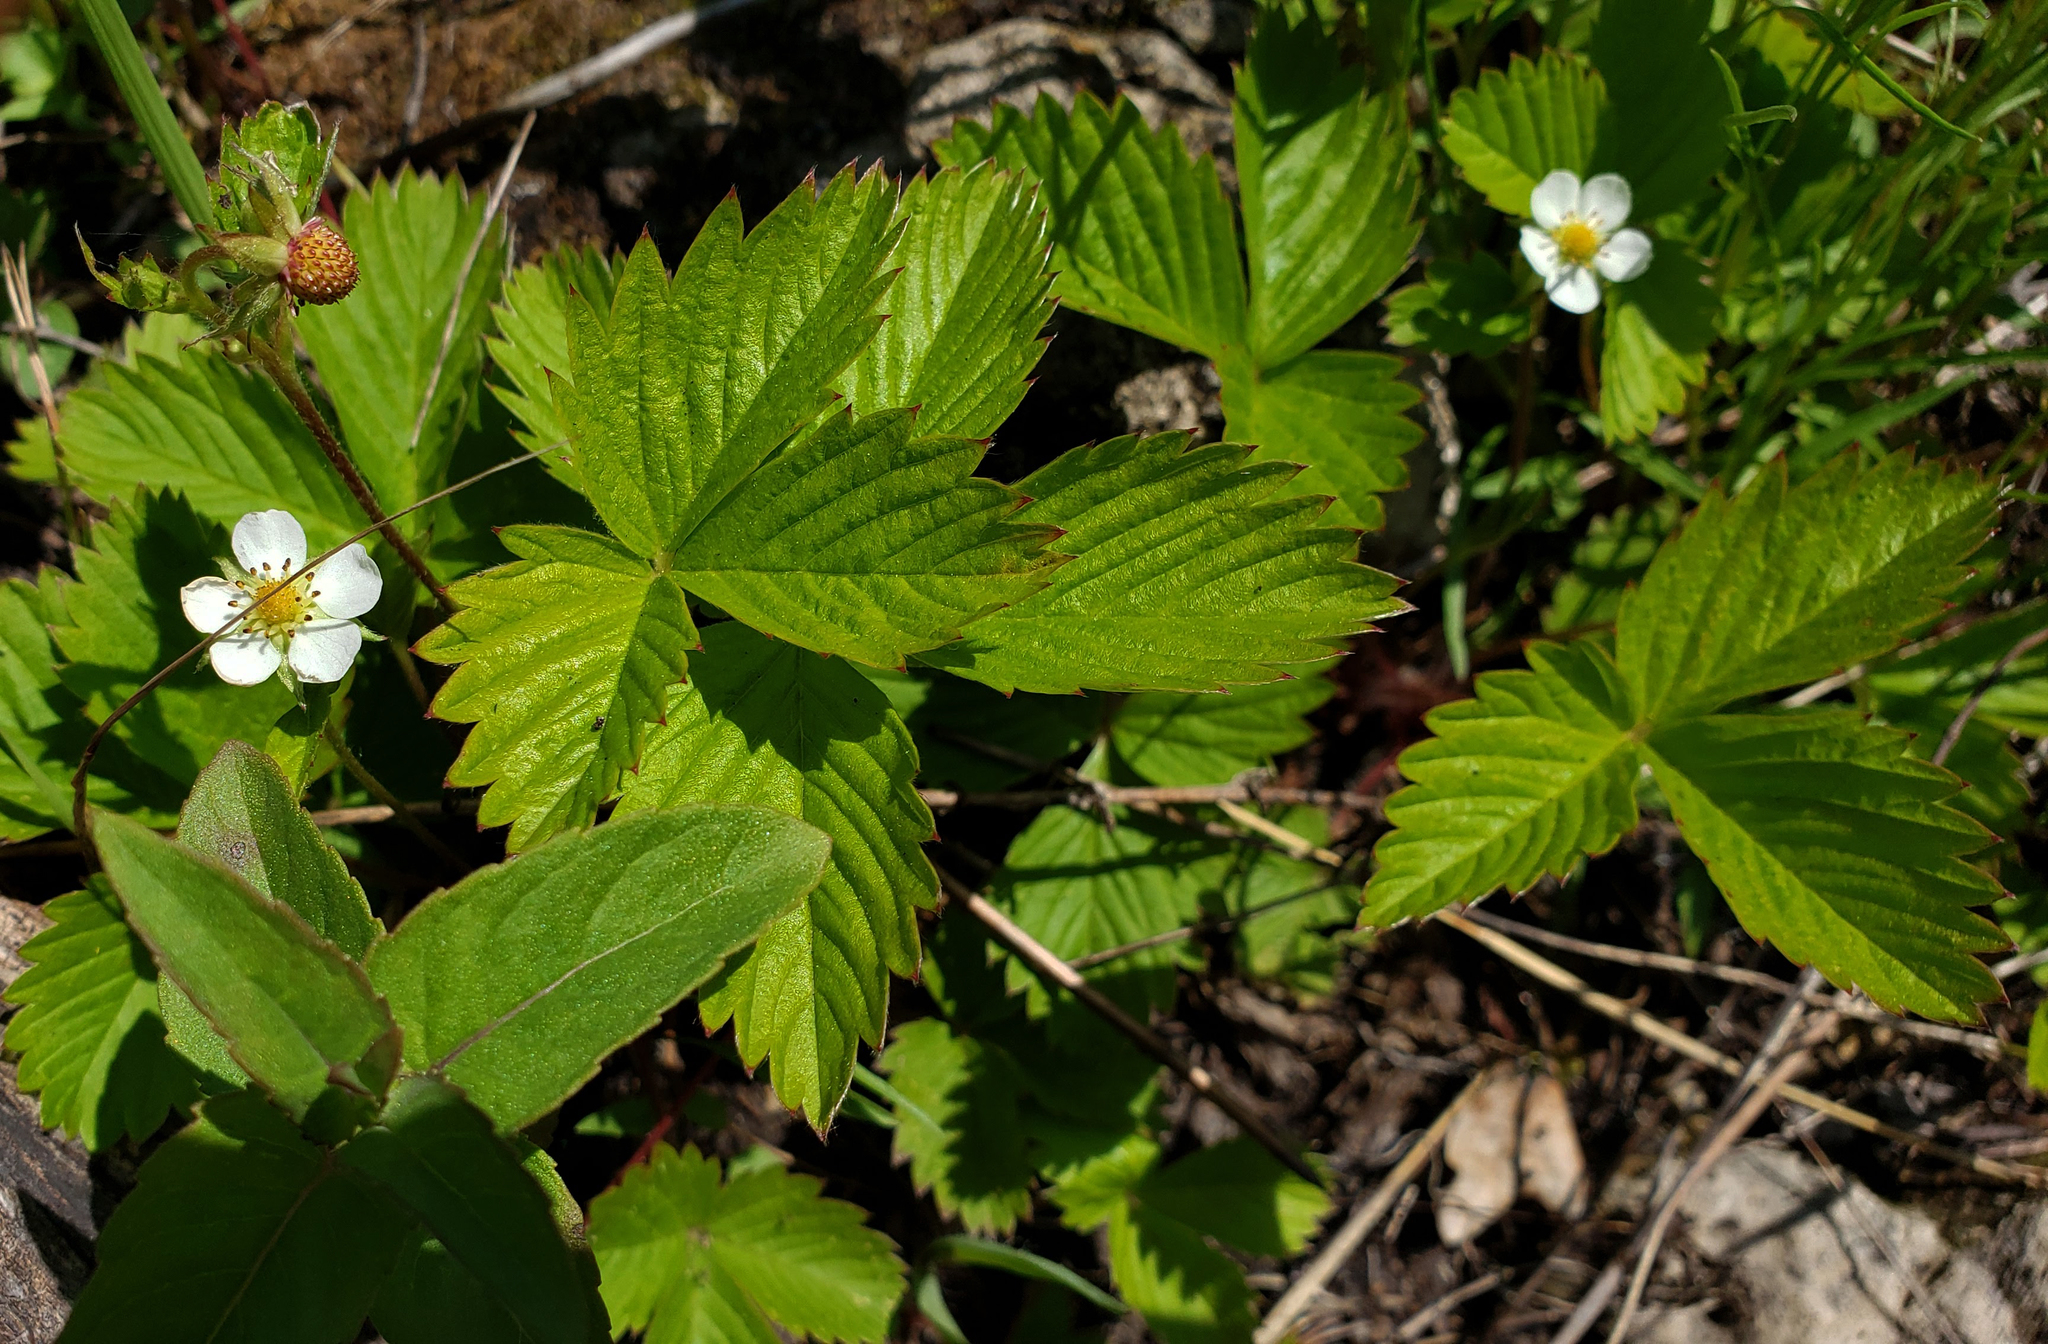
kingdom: Plantae
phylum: Tracheophyta
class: Magnoliopsida
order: Rosales
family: Rosaceae
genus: Fragaria
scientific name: Fragaria vesca
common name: Wild strawberry
